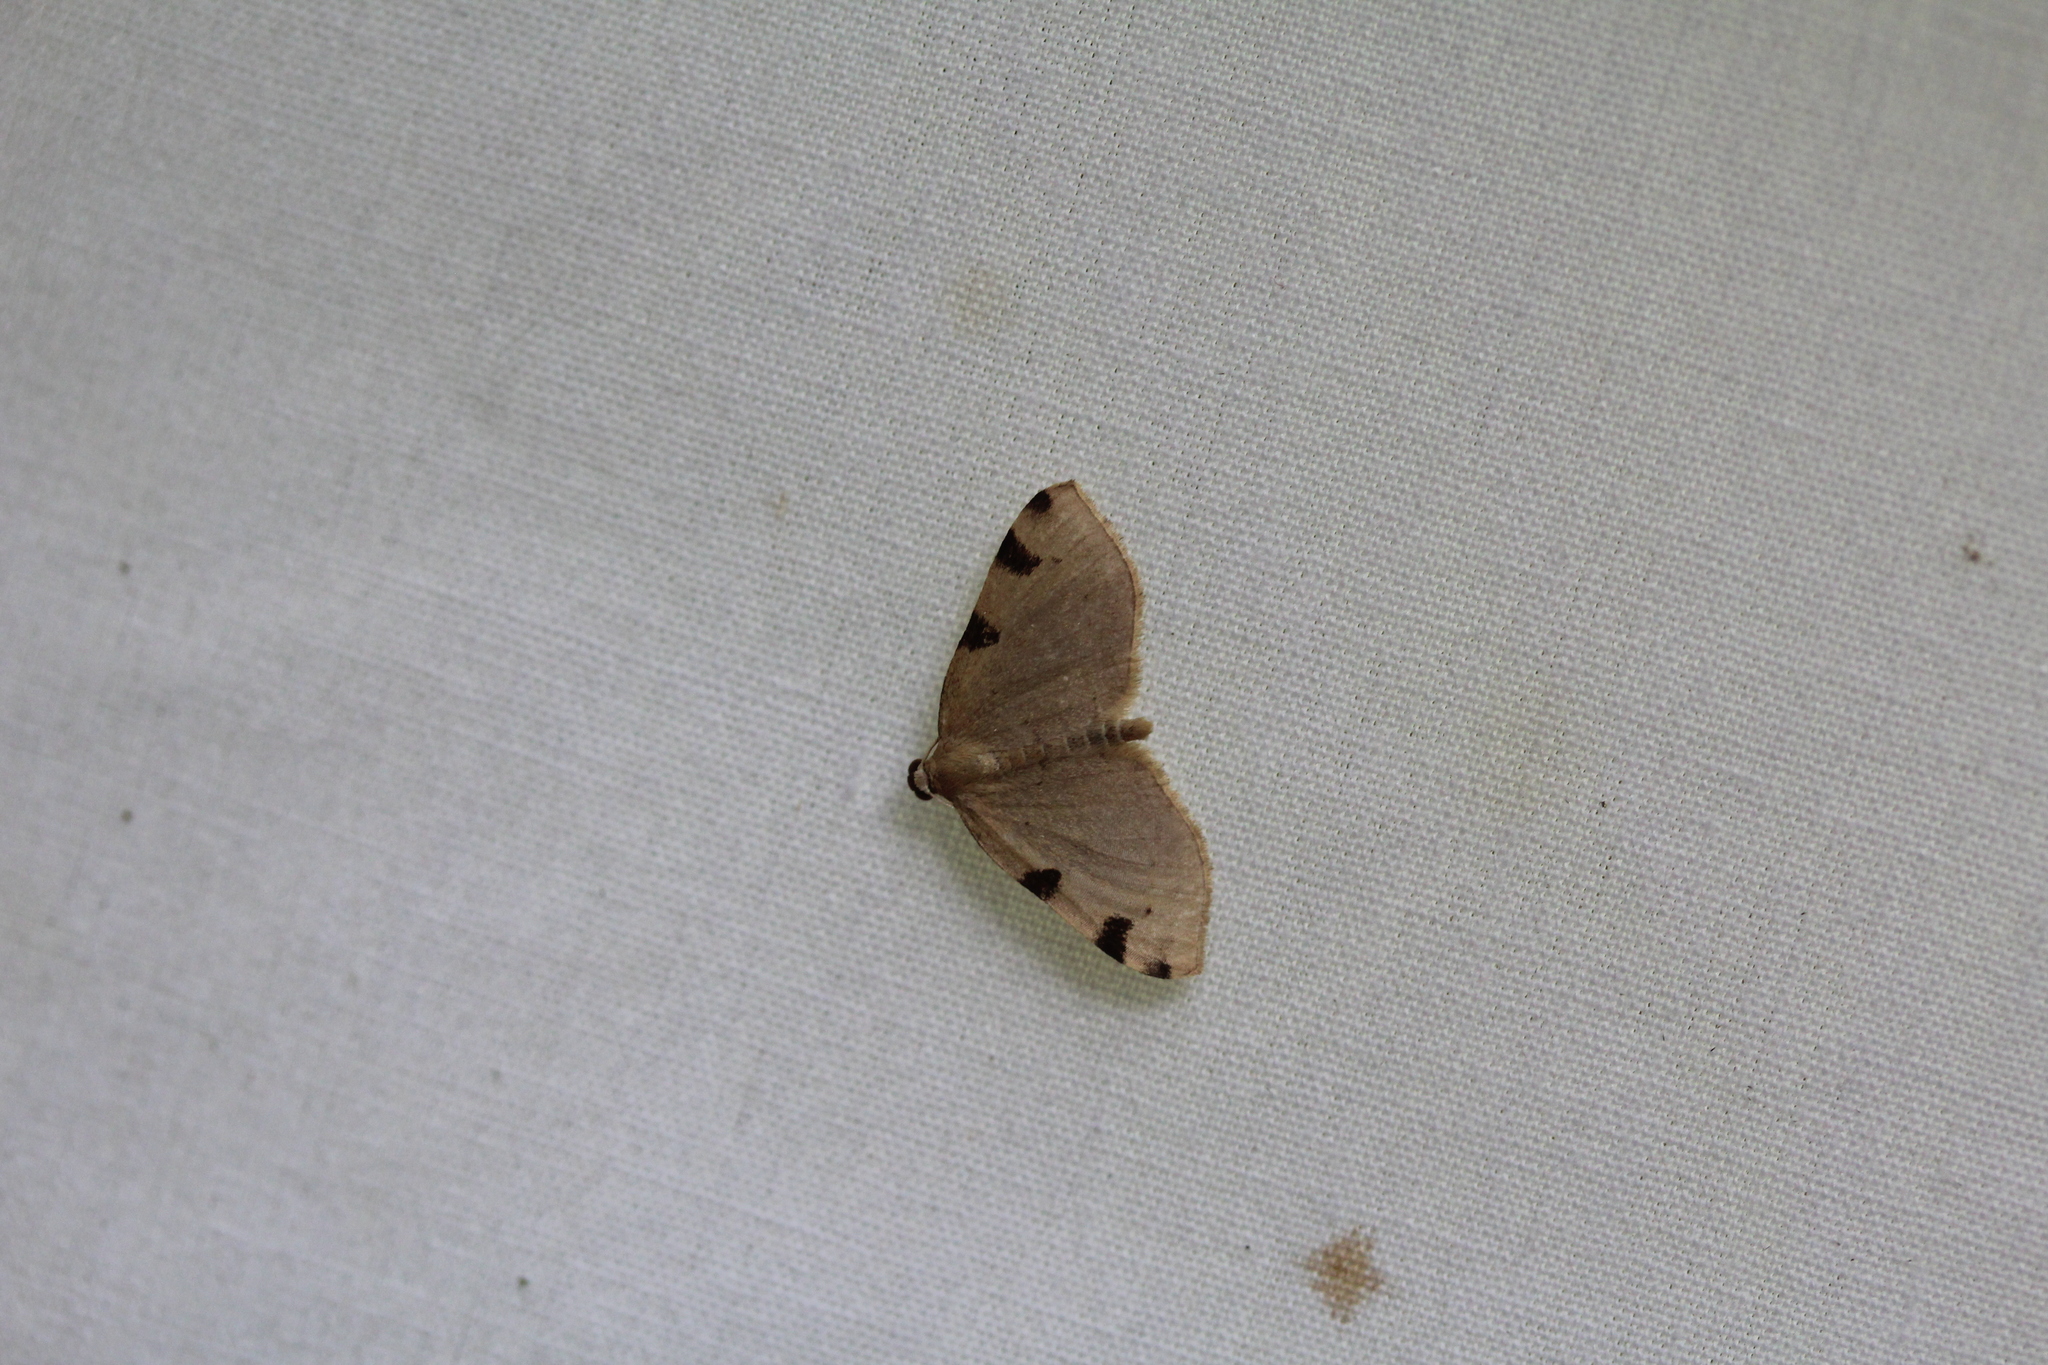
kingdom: Animalia
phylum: Arthropoda
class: Insecta
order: Lepidoptera
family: Geometridae
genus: Heterophleps
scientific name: Heterophleps triguttaria
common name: Three-spotted fillip
